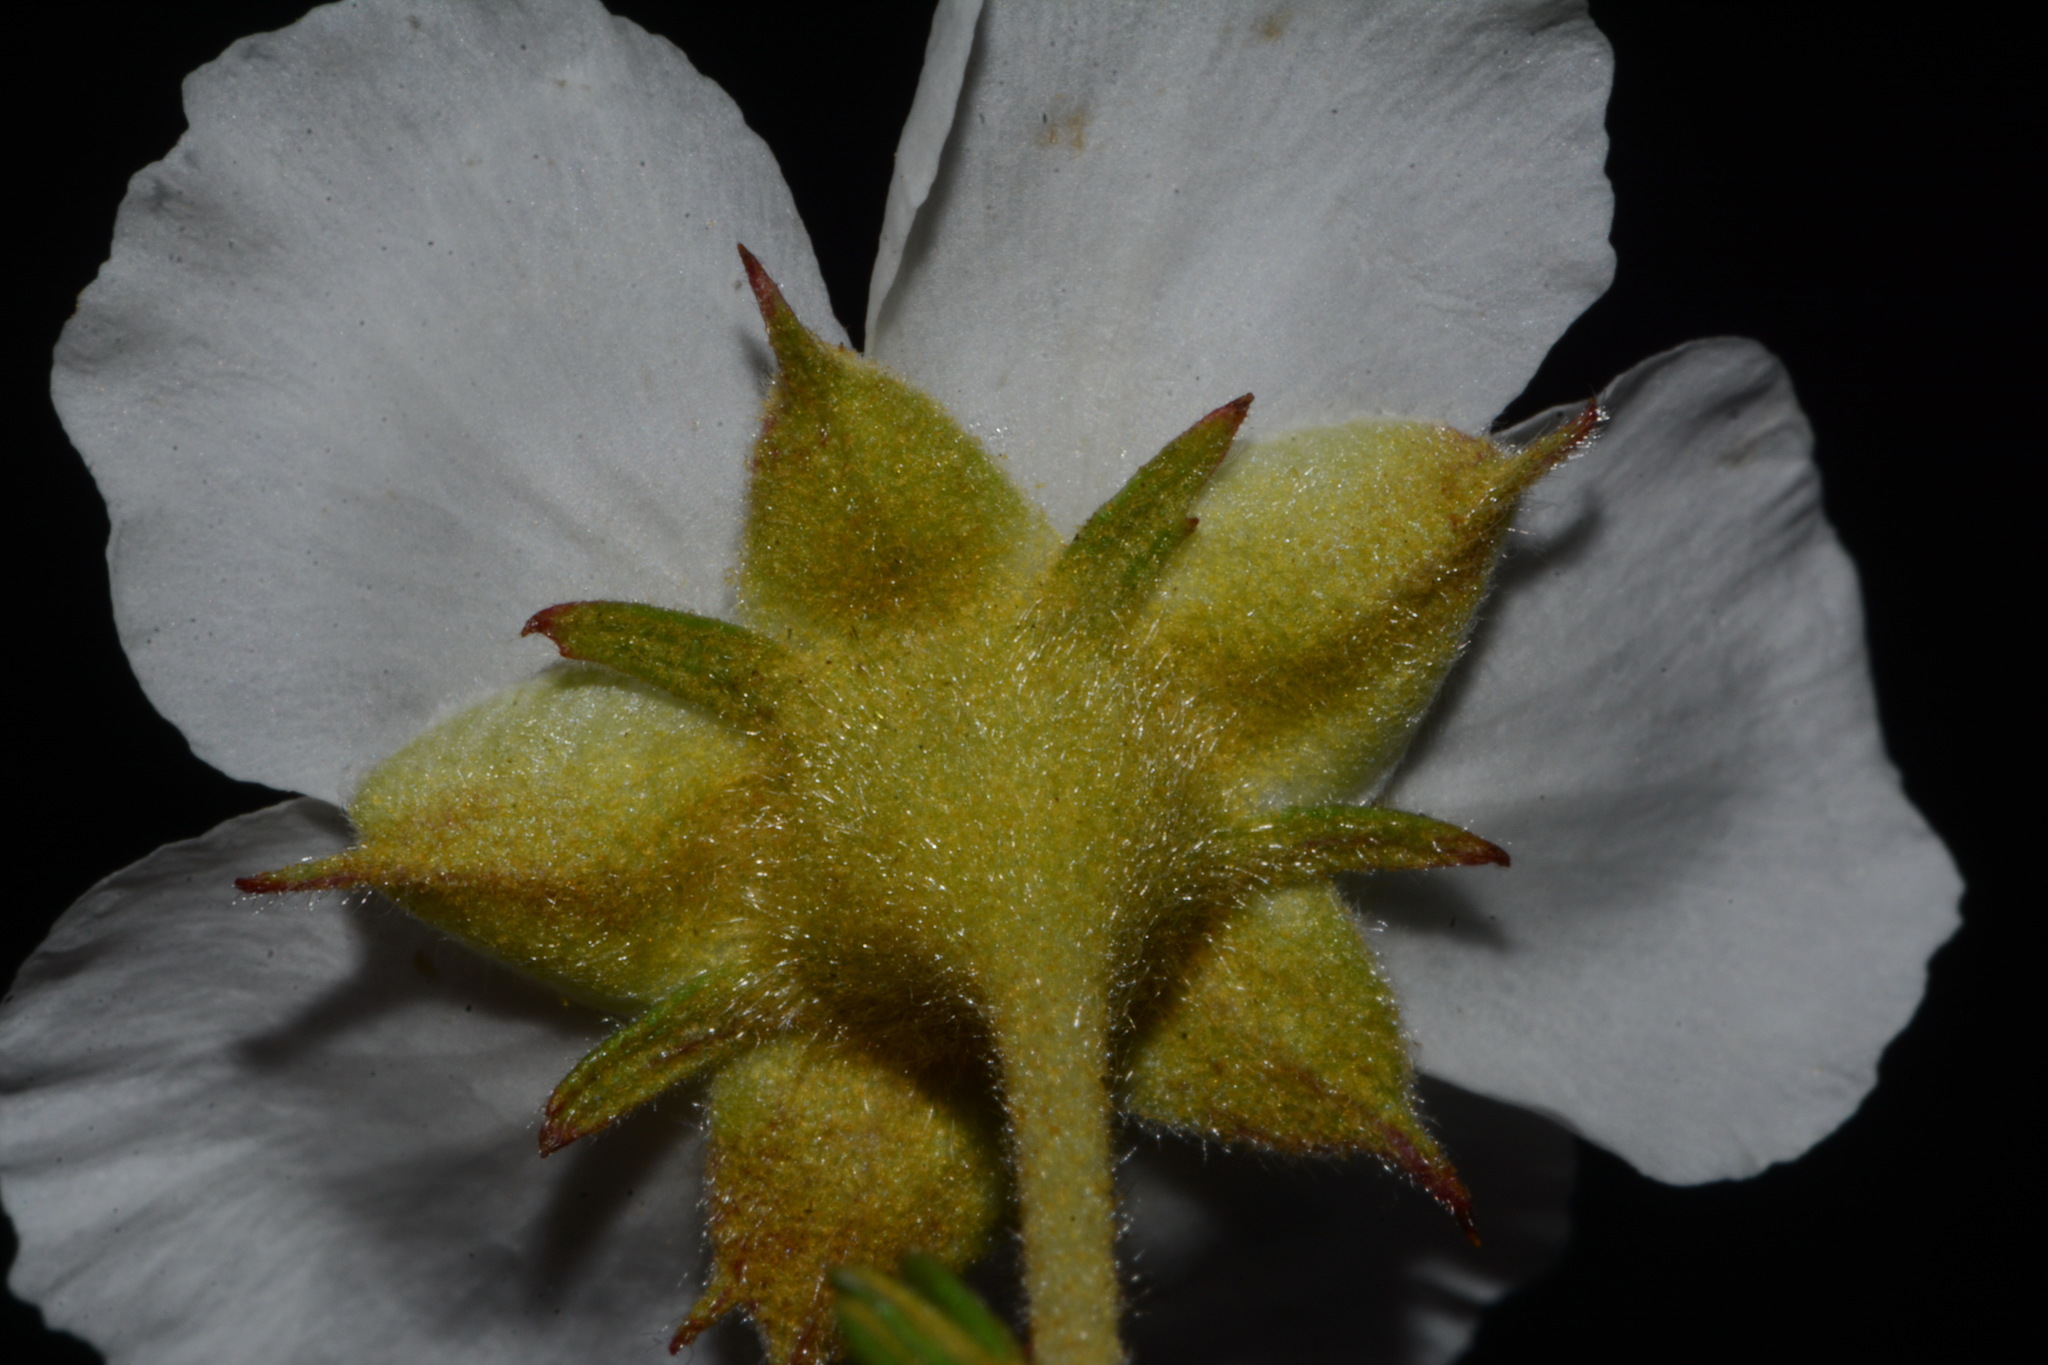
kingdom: Plantae
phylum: Tracheophyta
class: Magnoliopsida
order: Rosales
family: Rosaceae
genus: Fallugia
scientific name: Fallugia paradoxa
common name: Apache-plume
